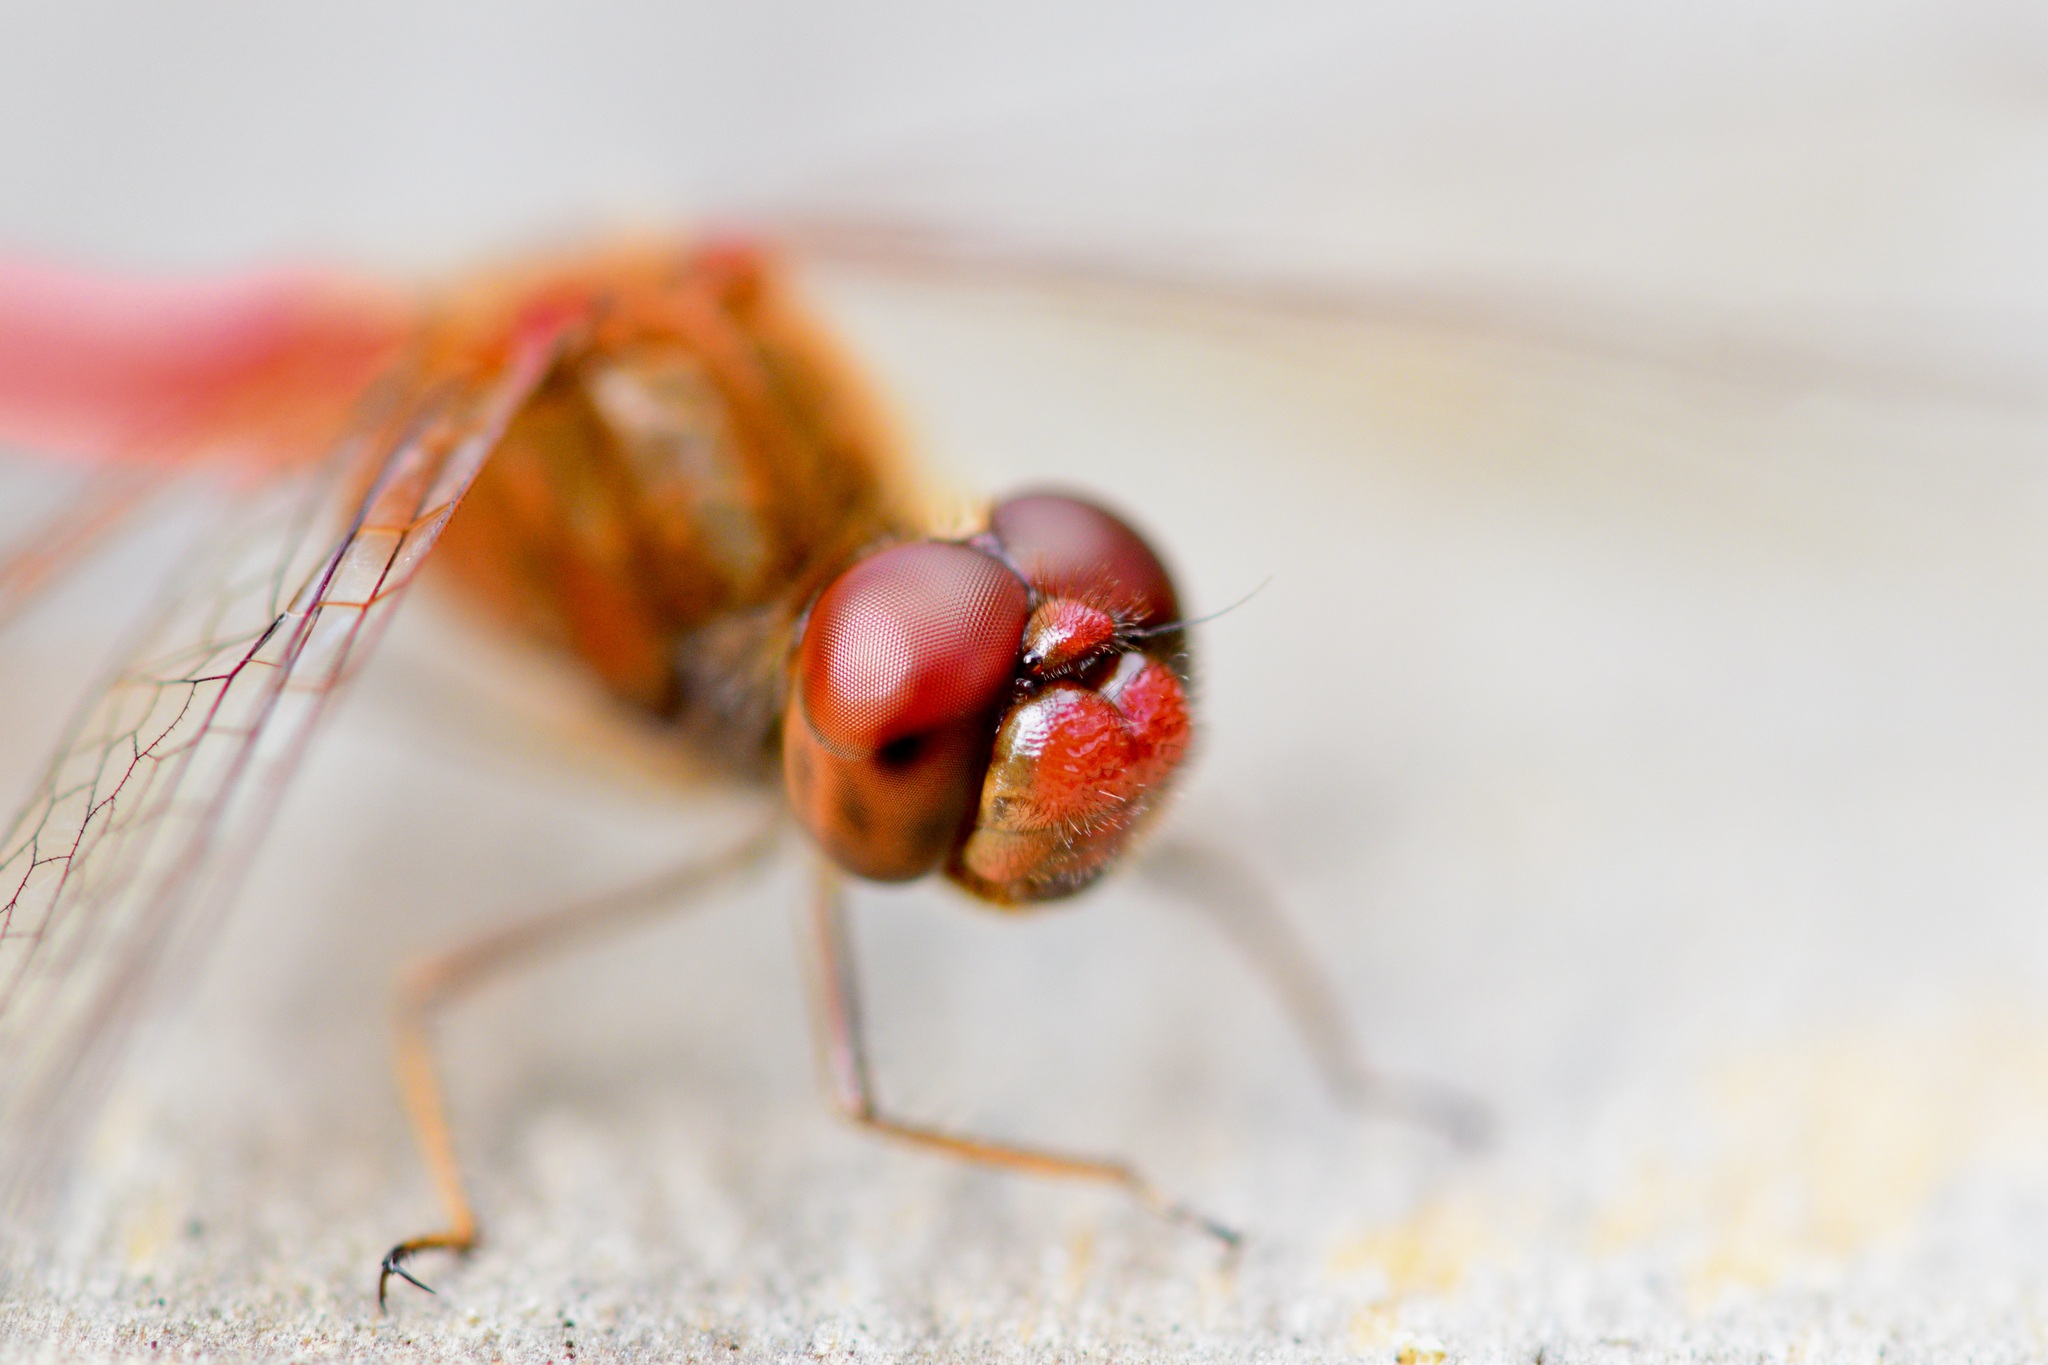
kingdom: Animalia
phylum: Arthropoda
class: Insecta
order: Odonata
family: Libellulidae
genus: Sympetrum
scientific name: Sympetrum vicinum
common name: Autumn meadowhawk
